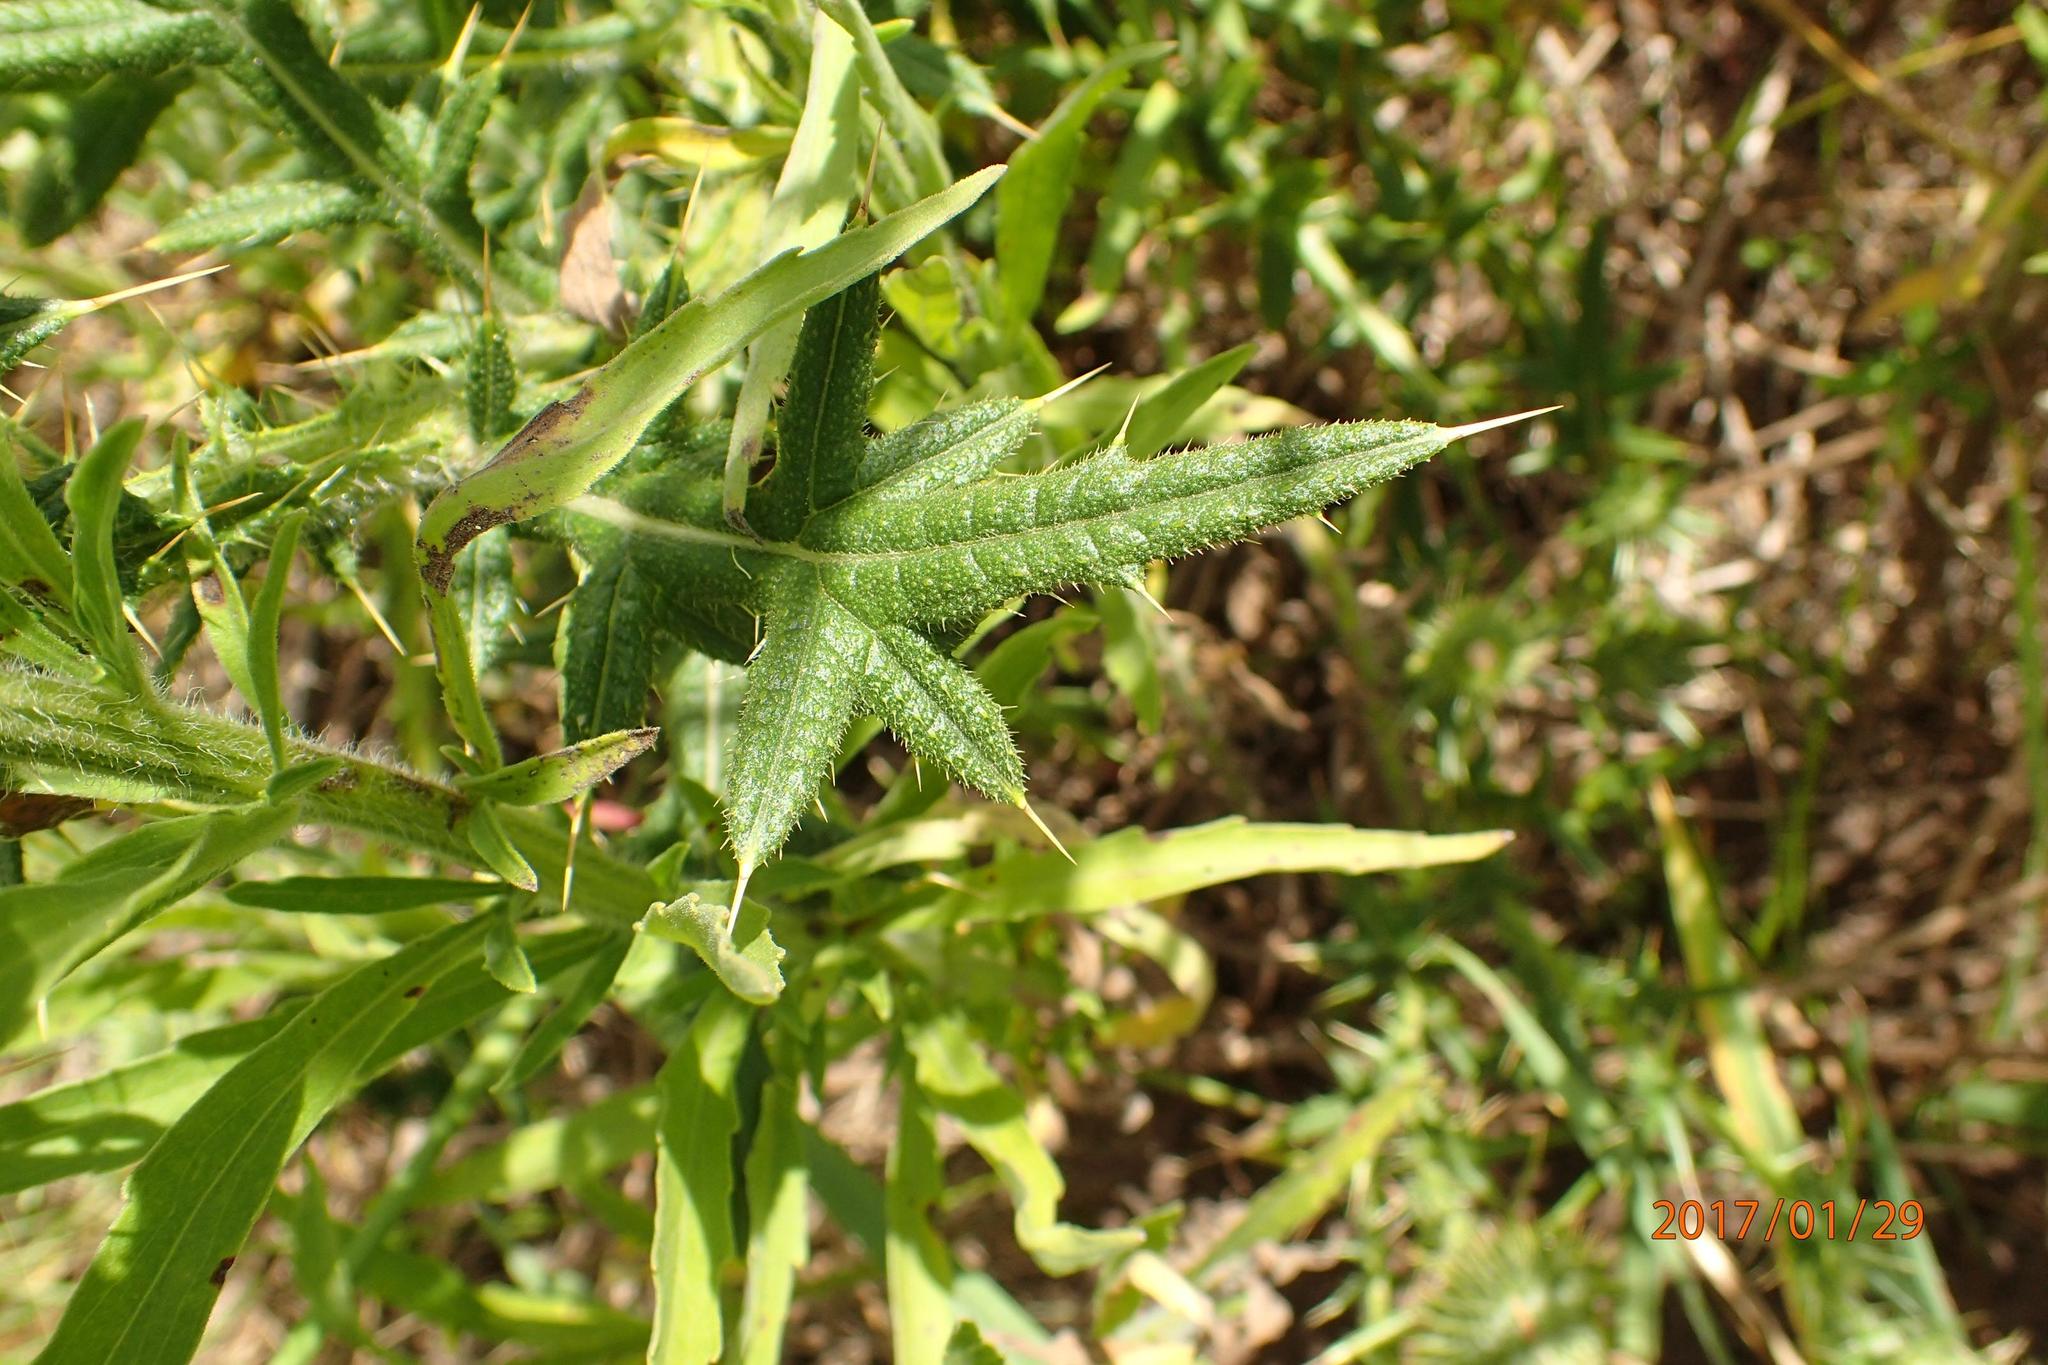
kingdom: Plantae
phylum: Tracheophyta
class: Magnoliopsida
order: Asterales
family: Asteraceae
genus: Cirsium
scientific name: Cirsium vulgare
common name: Bull thistle
